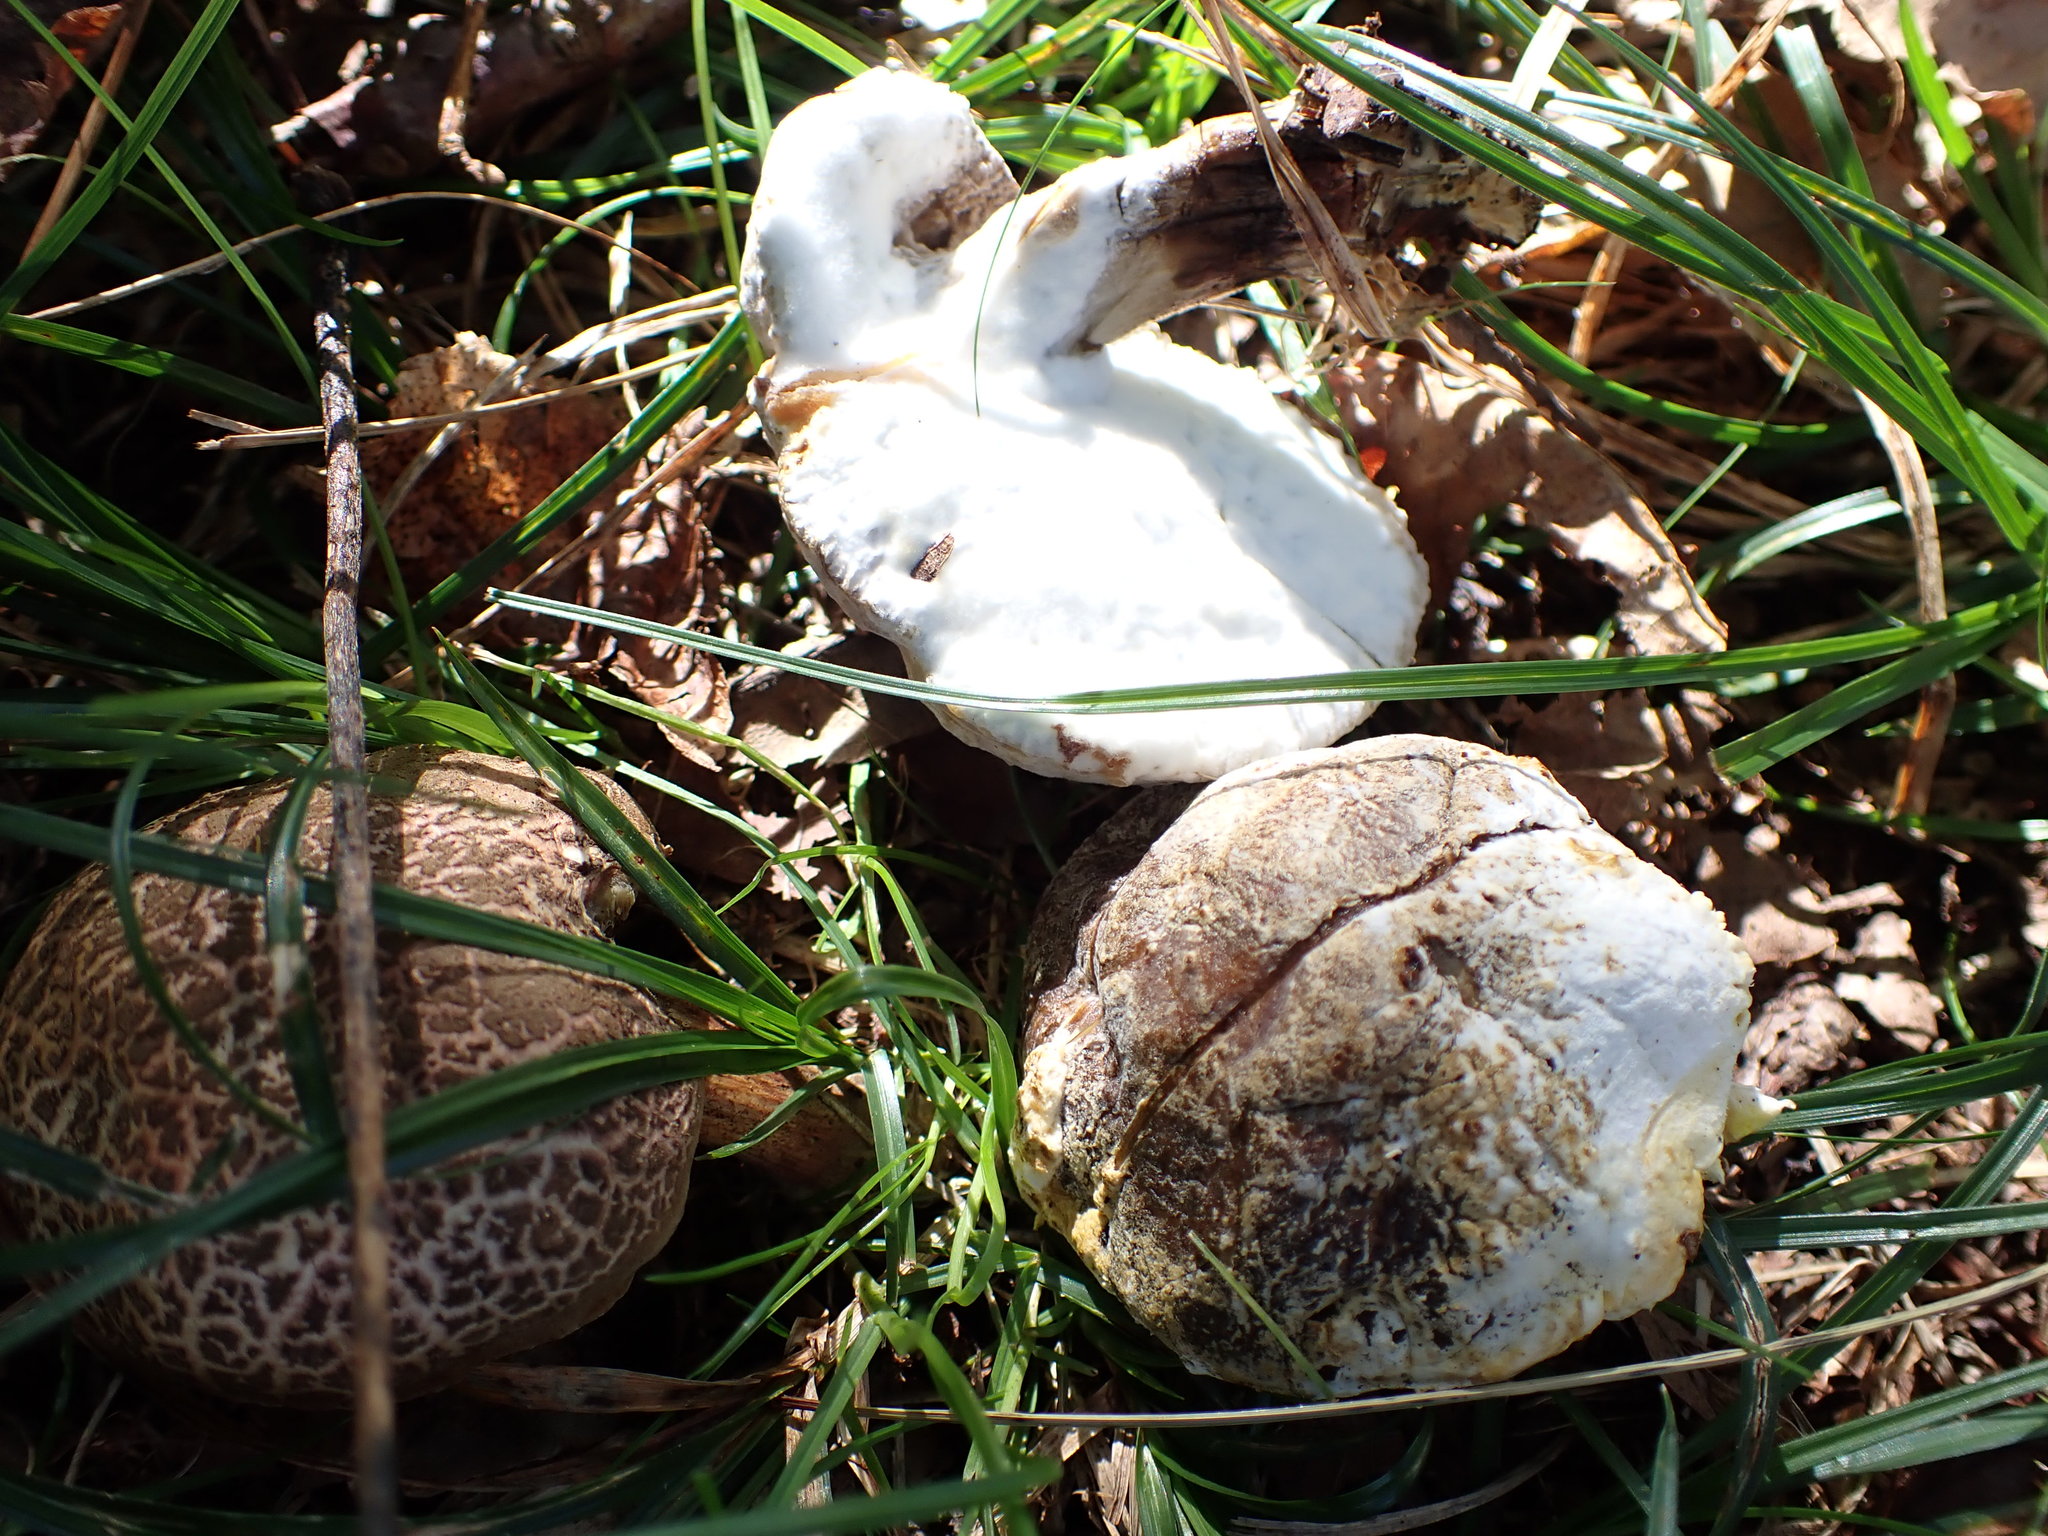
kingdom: Fungi
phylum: Ascomycota
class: Sordariomycetes
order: Hypocreales
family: Hypocreaceae
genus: Hypomyces
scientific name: Hypomyces chrysospermus
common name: Bolete mould
